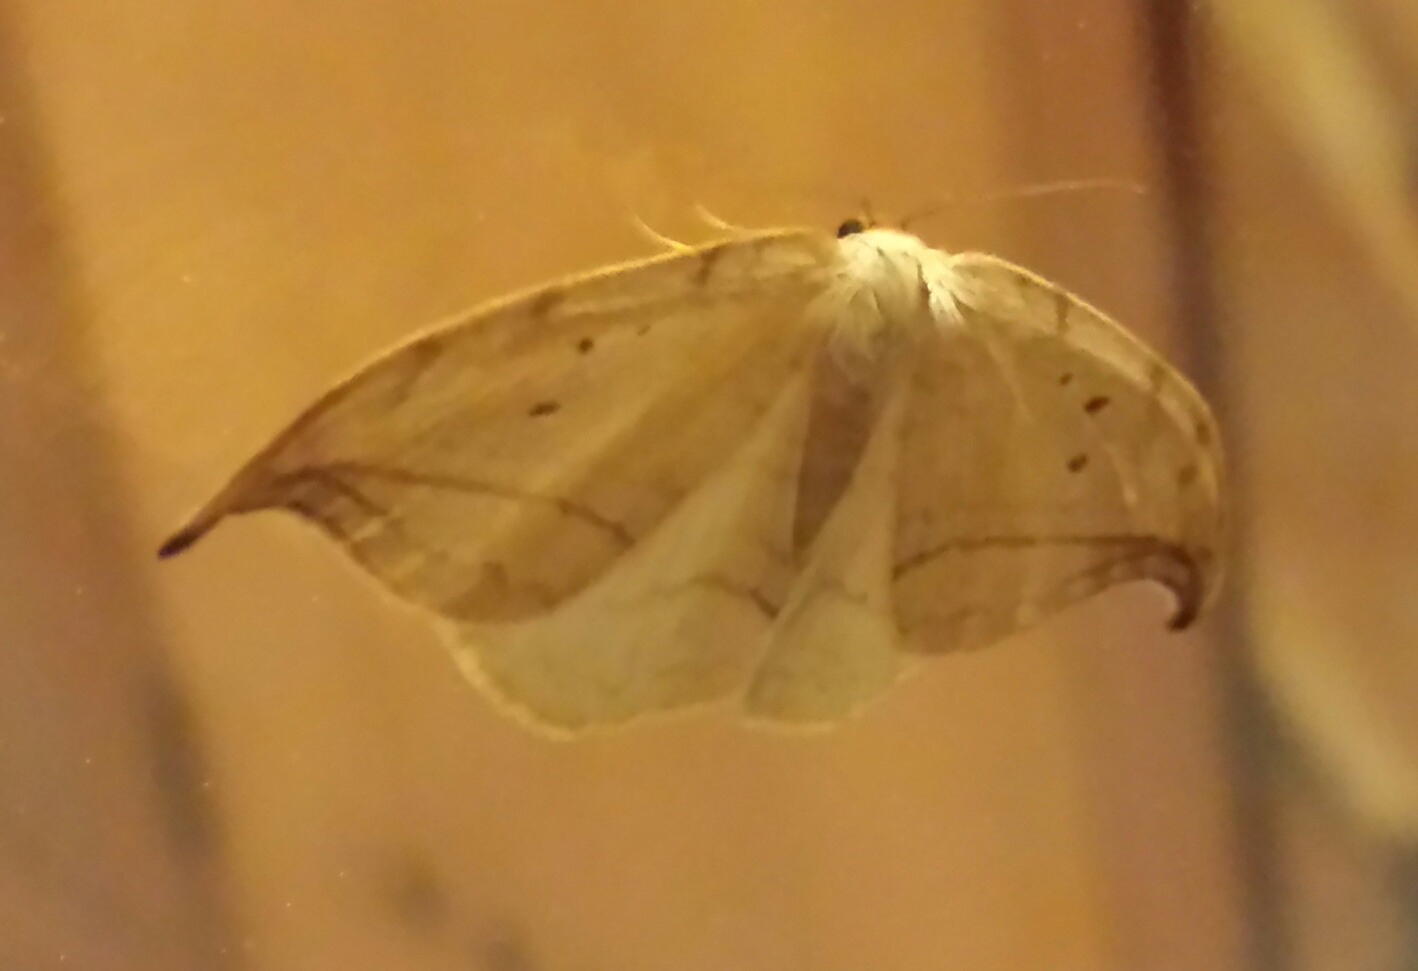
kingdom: Animalia
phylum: Arthropoda
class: Insecta
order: Lepidoptera
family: Drepanidae
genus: Drepana
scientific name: Drepana arcuata
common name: Arched hooktip moth
